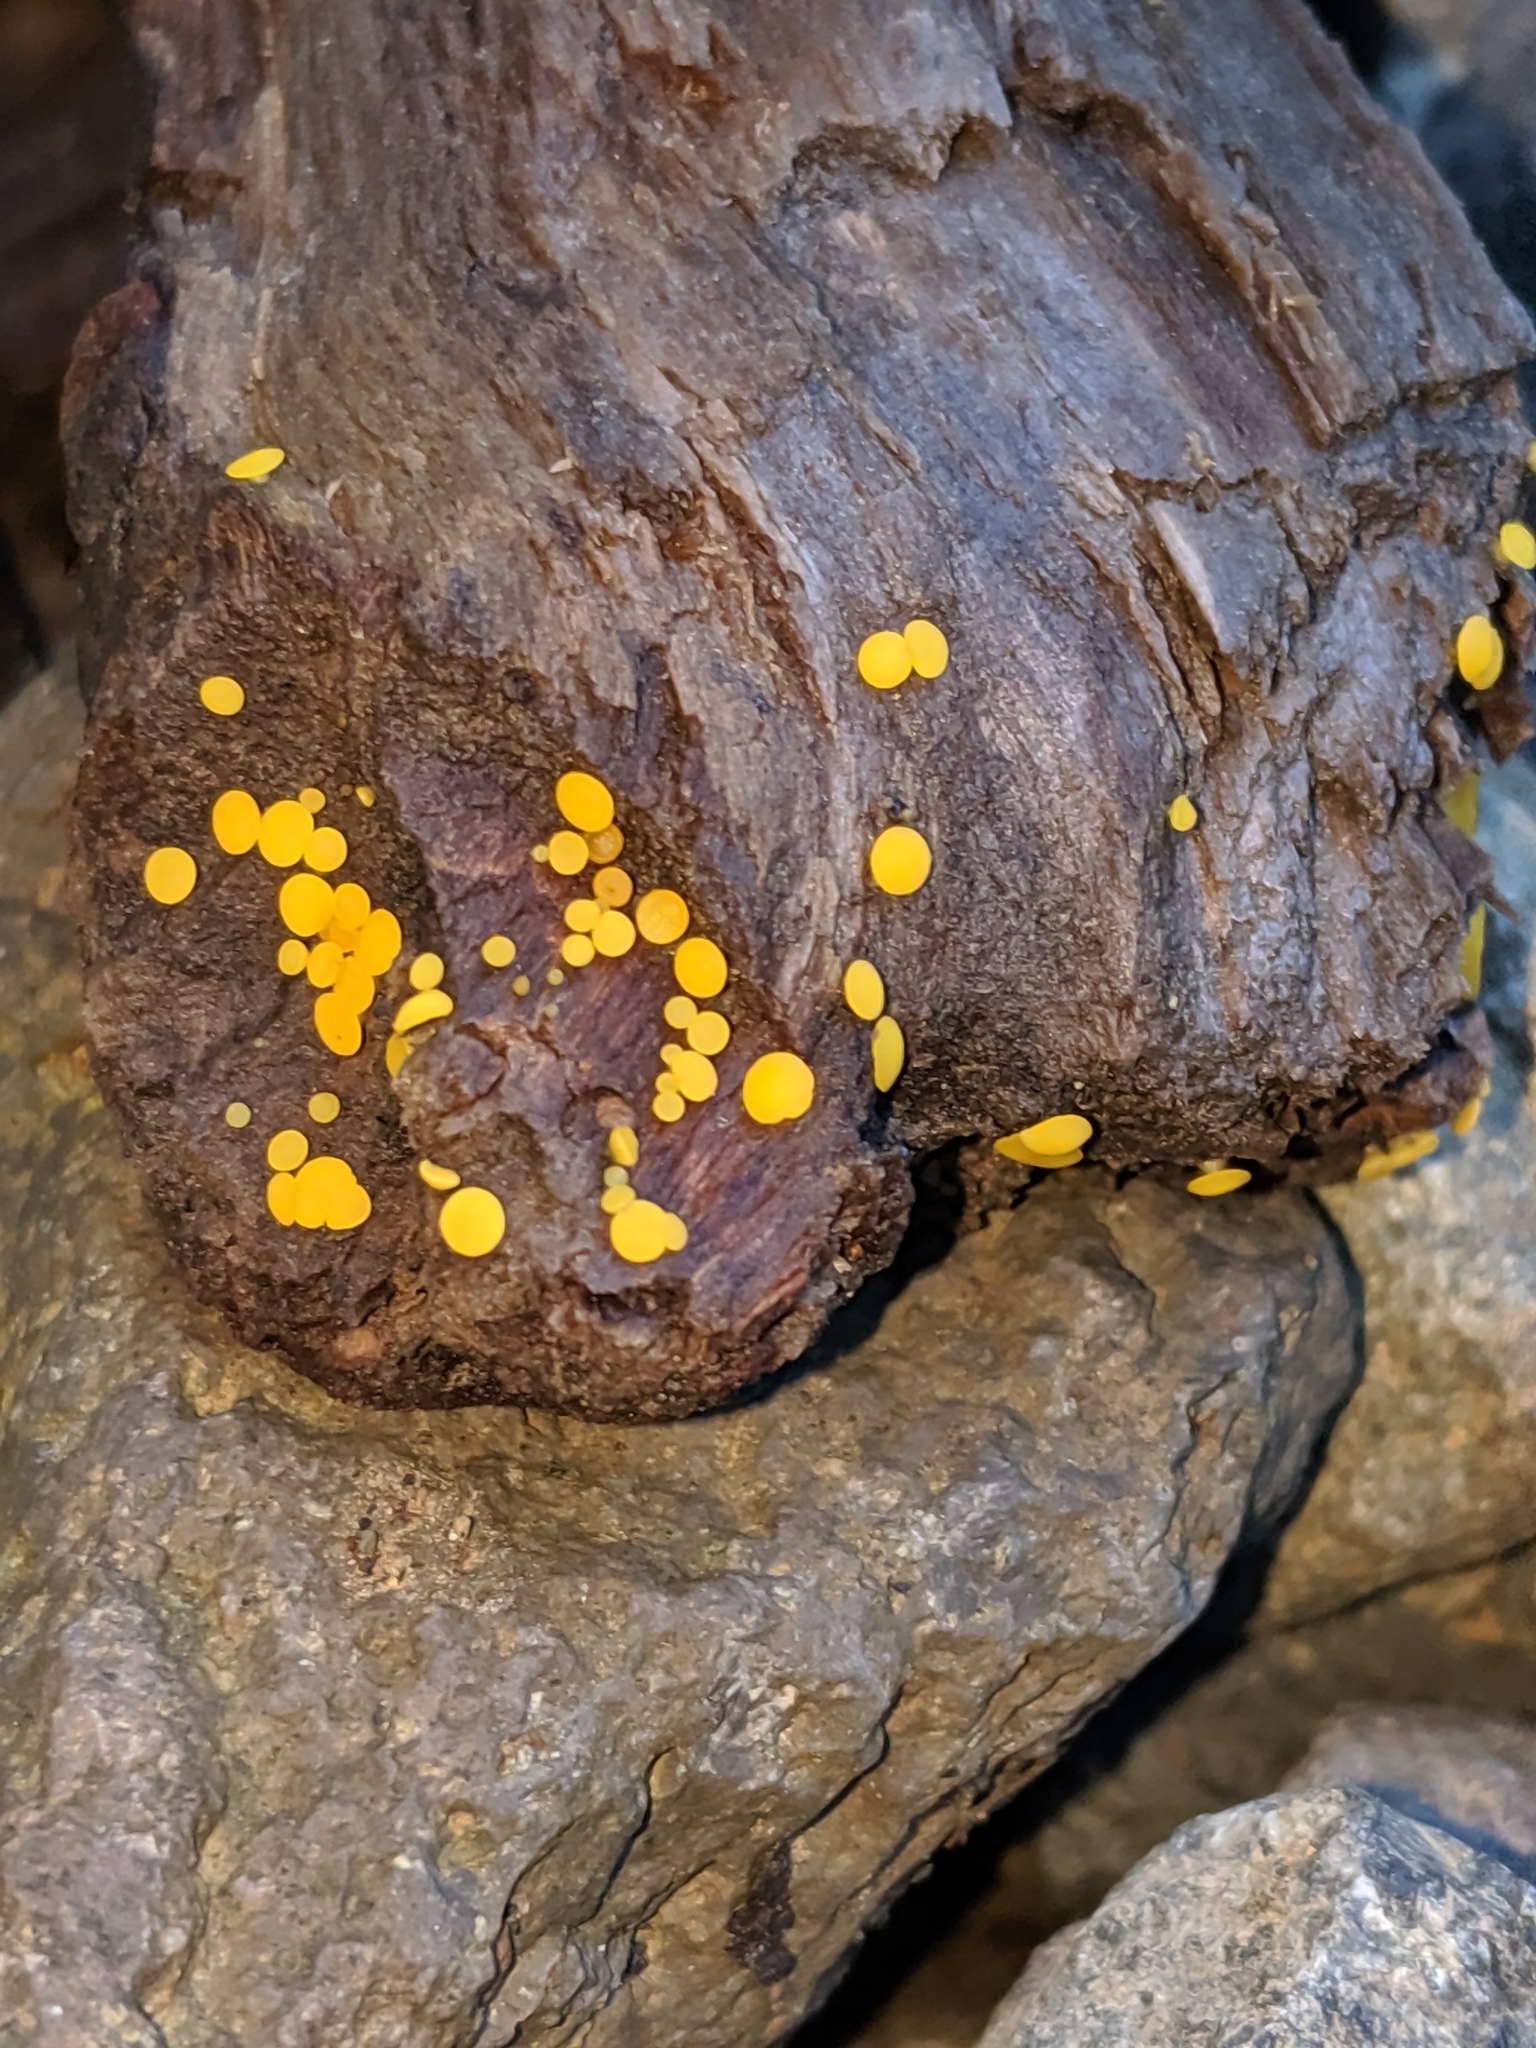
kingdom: Fungi
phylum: Ascomycota
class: Leotiomycetes
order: Helotiales
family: Pezizellaceae
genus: Calycina
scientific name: Calycina citrina
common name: Yellow fairy cups
